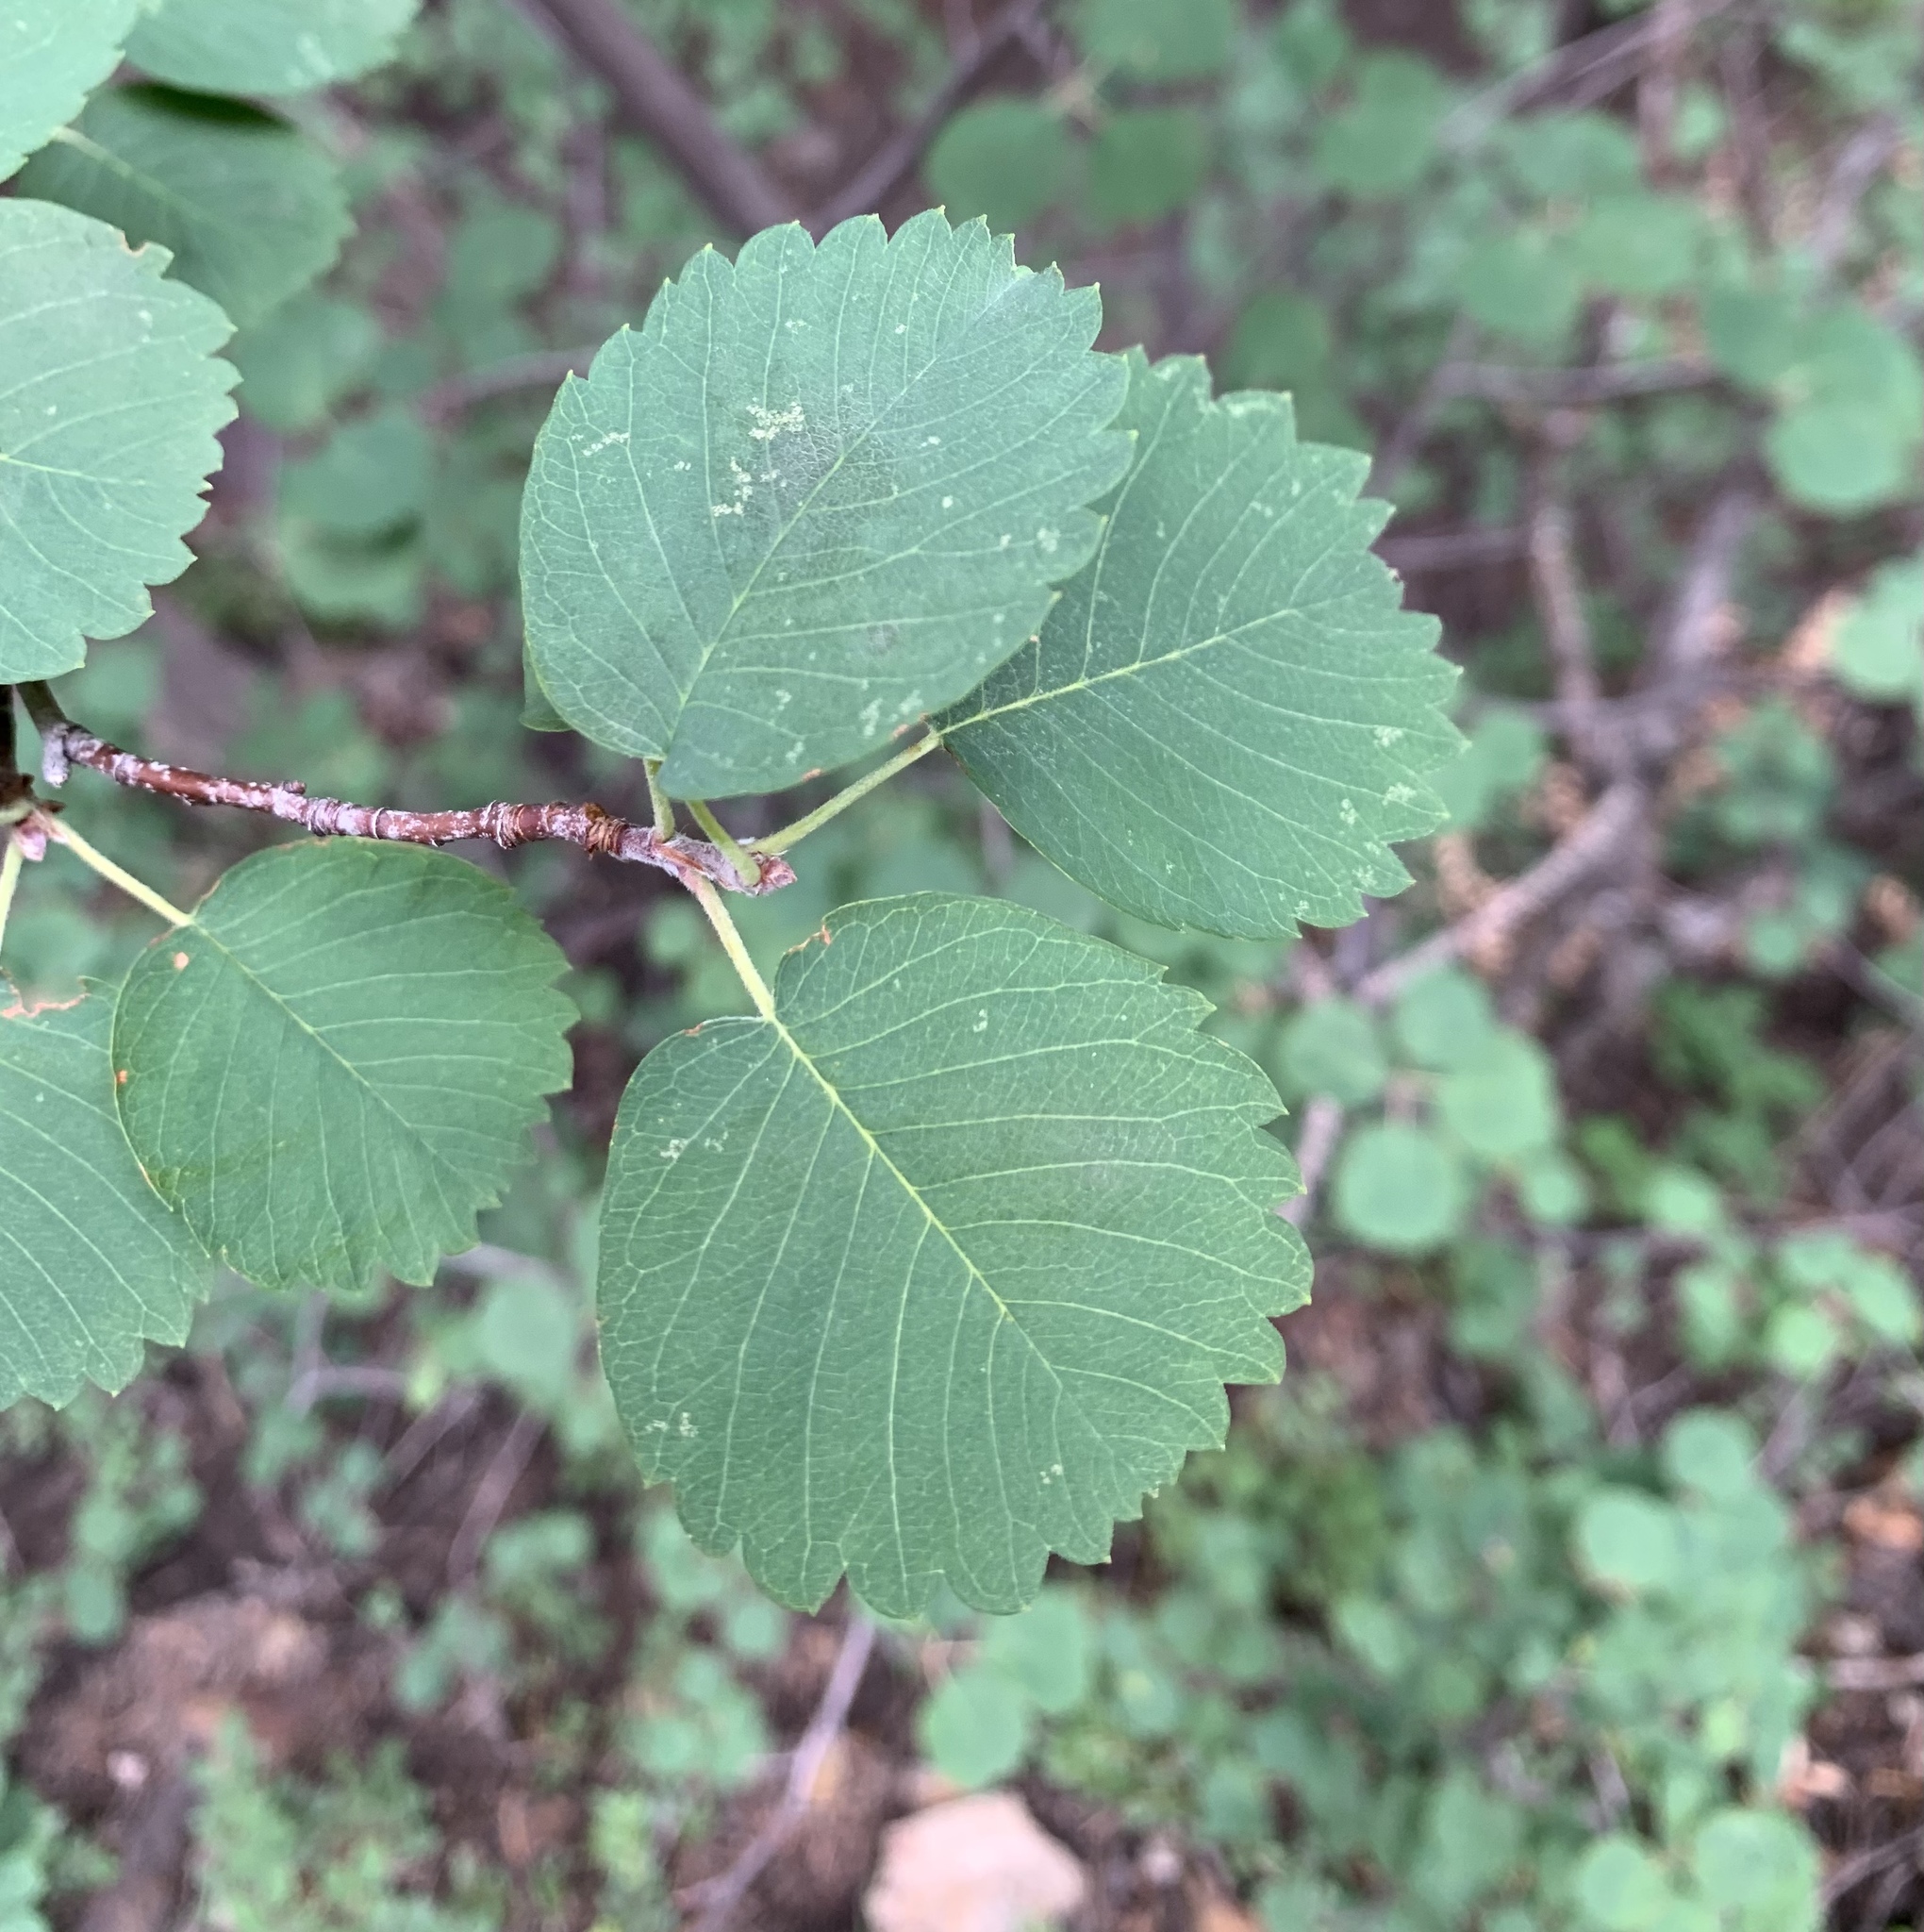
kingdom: Plantae
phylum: Tracheophyta
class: Magnoliopsida
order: Rosales
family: Rosaceae
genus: Amelanchier
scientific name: Amelanchier utahensis
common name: Utah serviceberry
